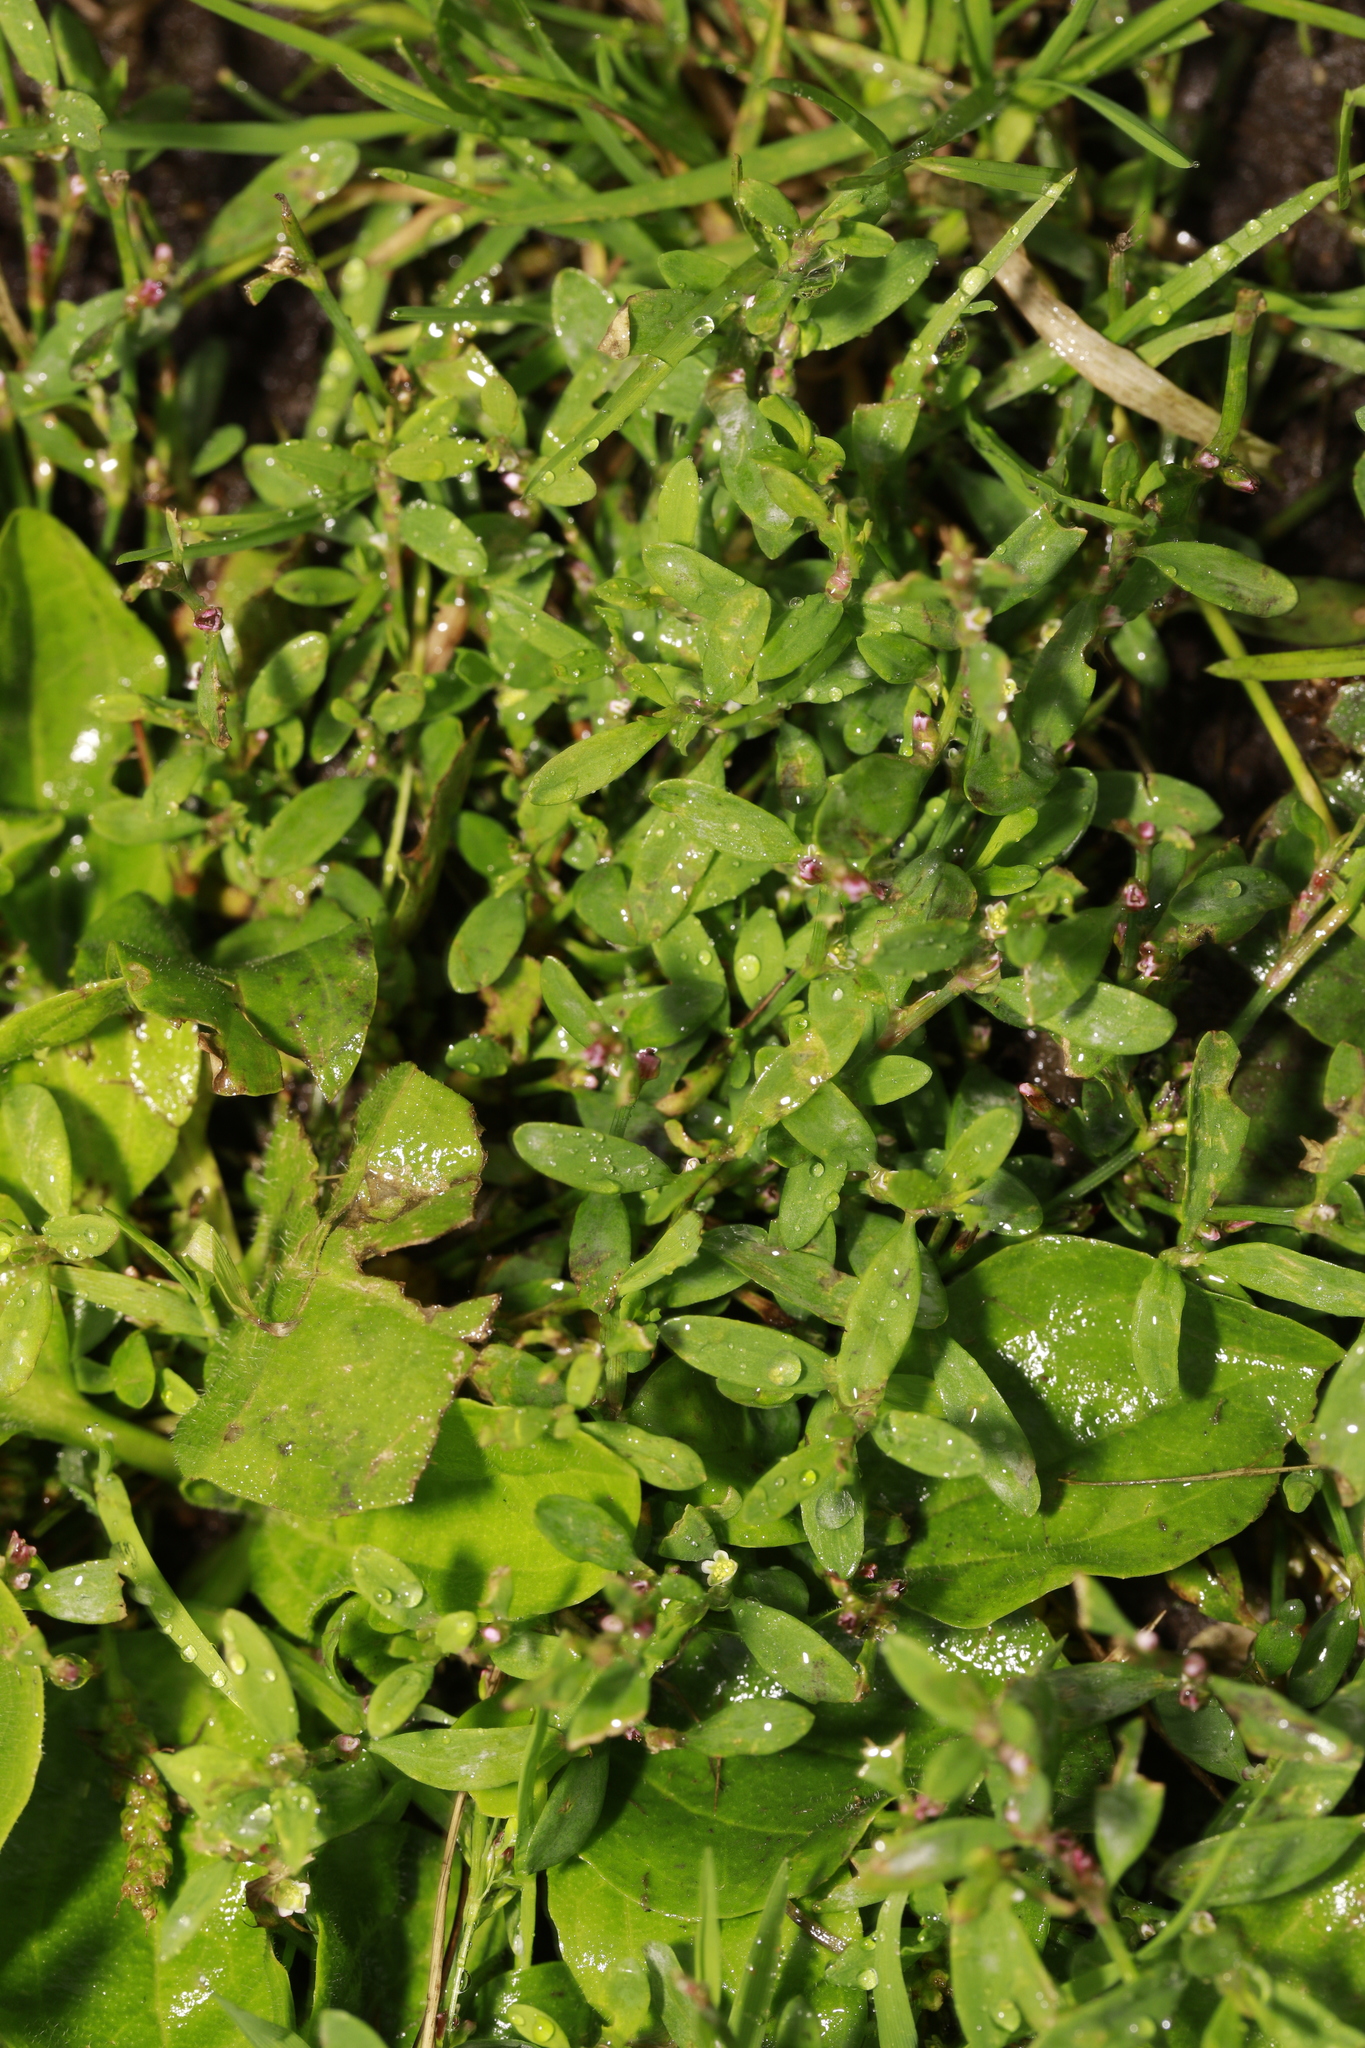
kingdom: Plantae
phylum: Tracheophyta
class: Magnoliopsida
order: Caryophyllales
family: Polygonaceae
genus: Polygonum
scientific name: Polygonum aviculare
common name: Prostrate knotweed
